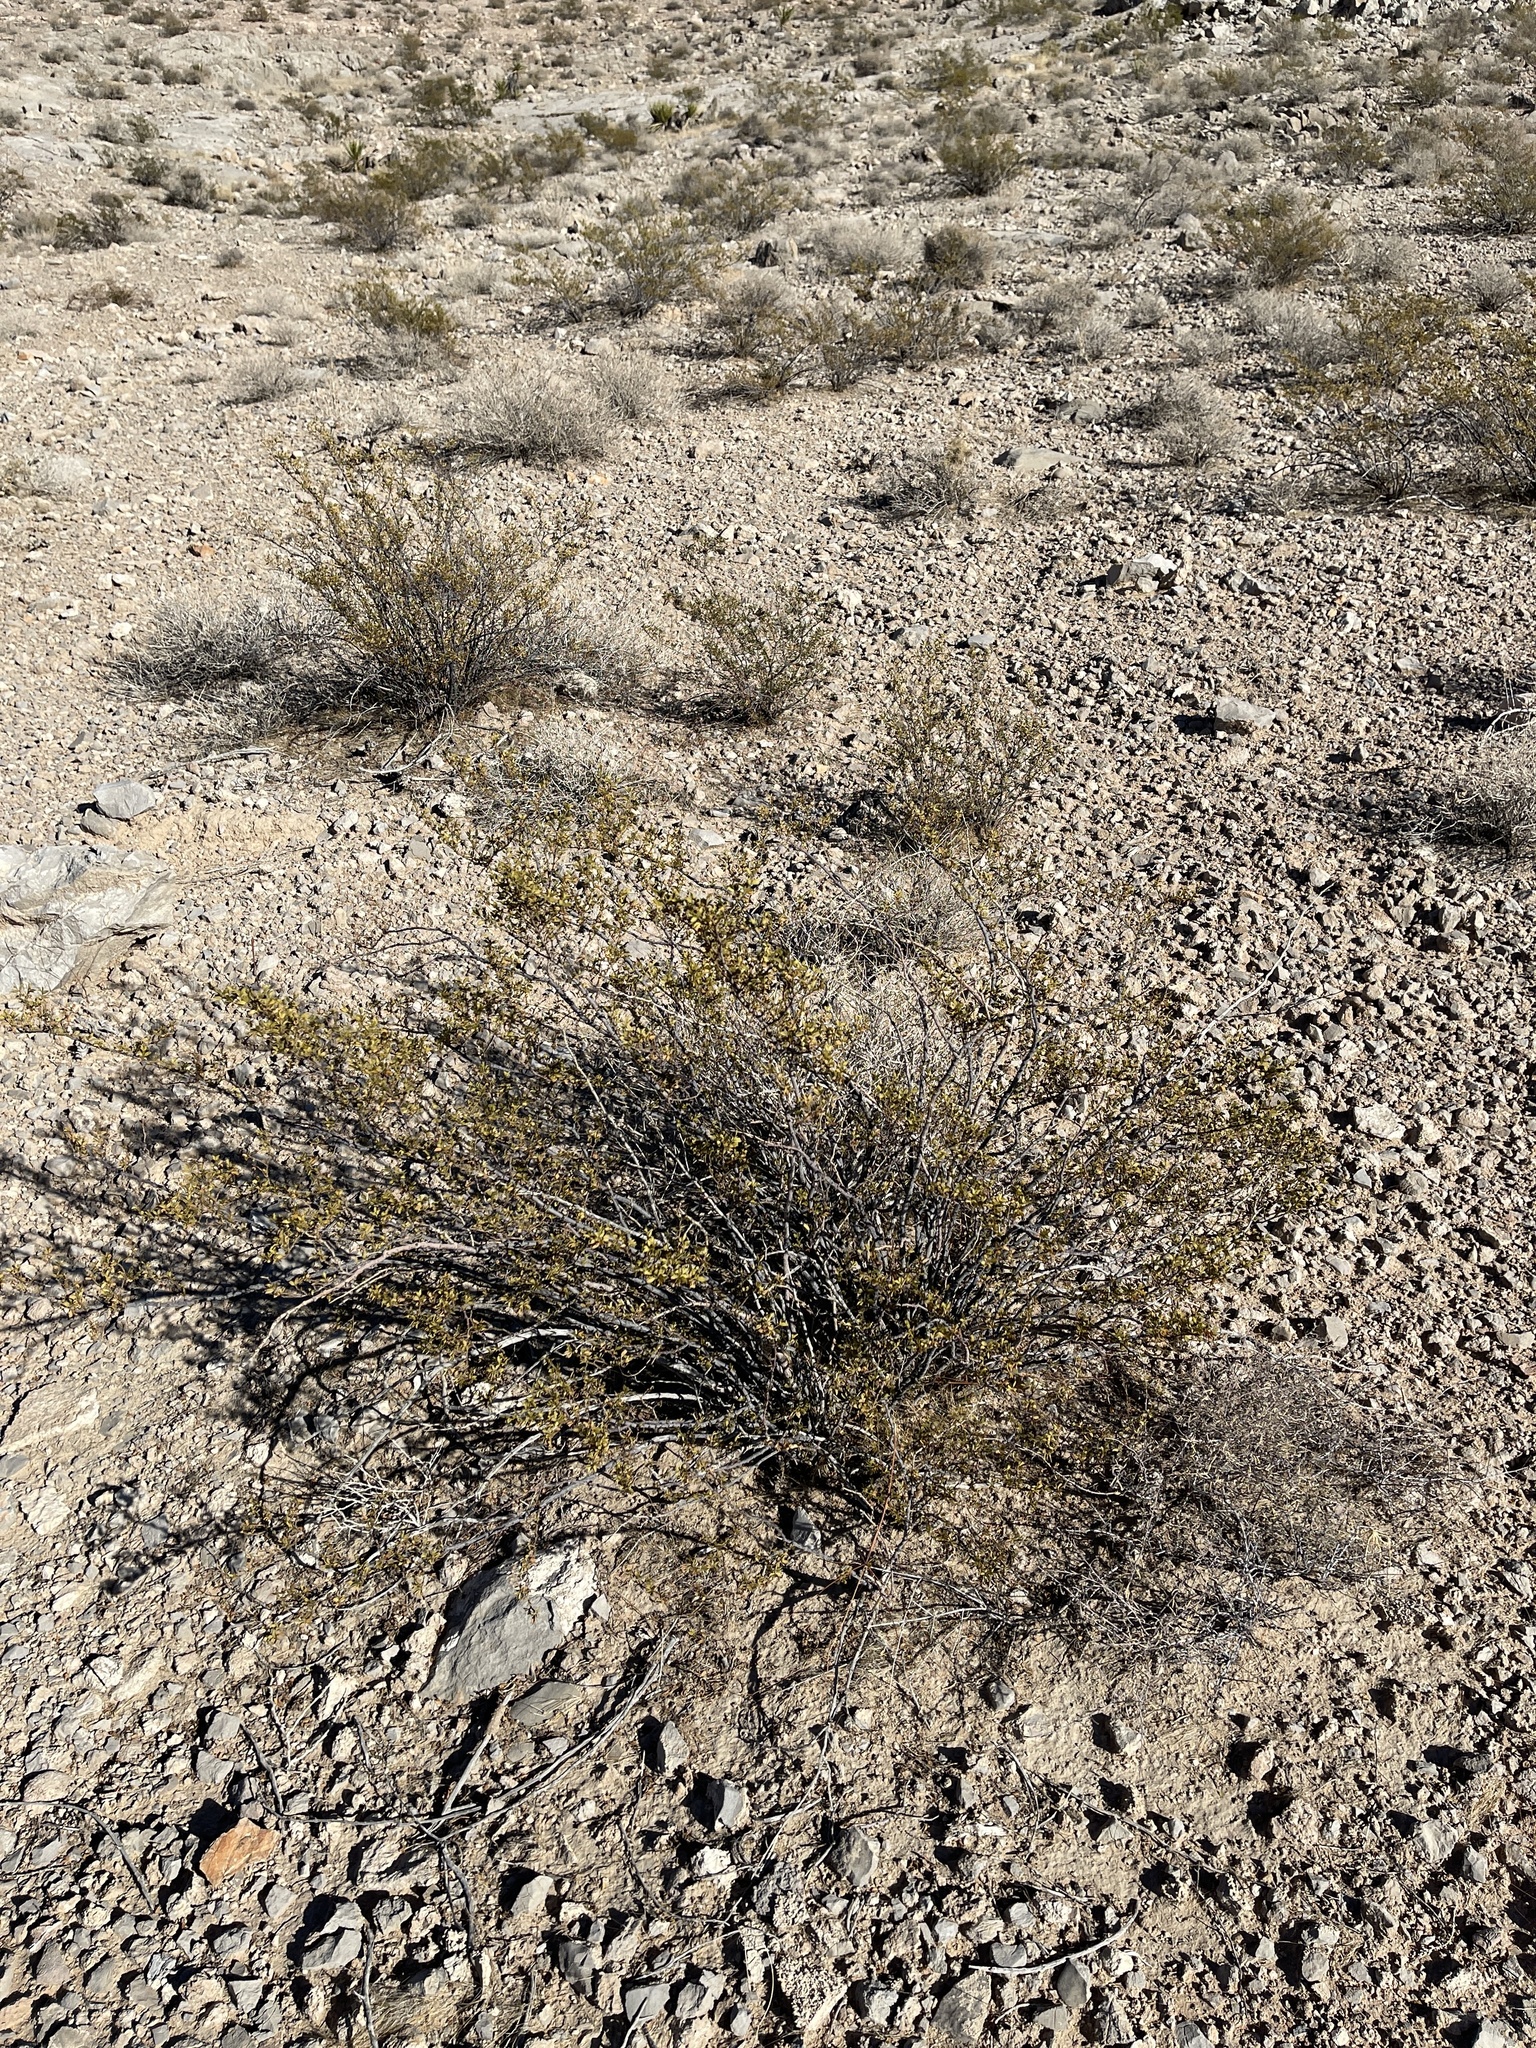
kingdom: Plantae
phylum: Tracheophyta
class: Magnoliopsida
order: Zygophyllales
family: Zygophyllaceae
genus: Larrea
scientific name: Larrea tridentata
